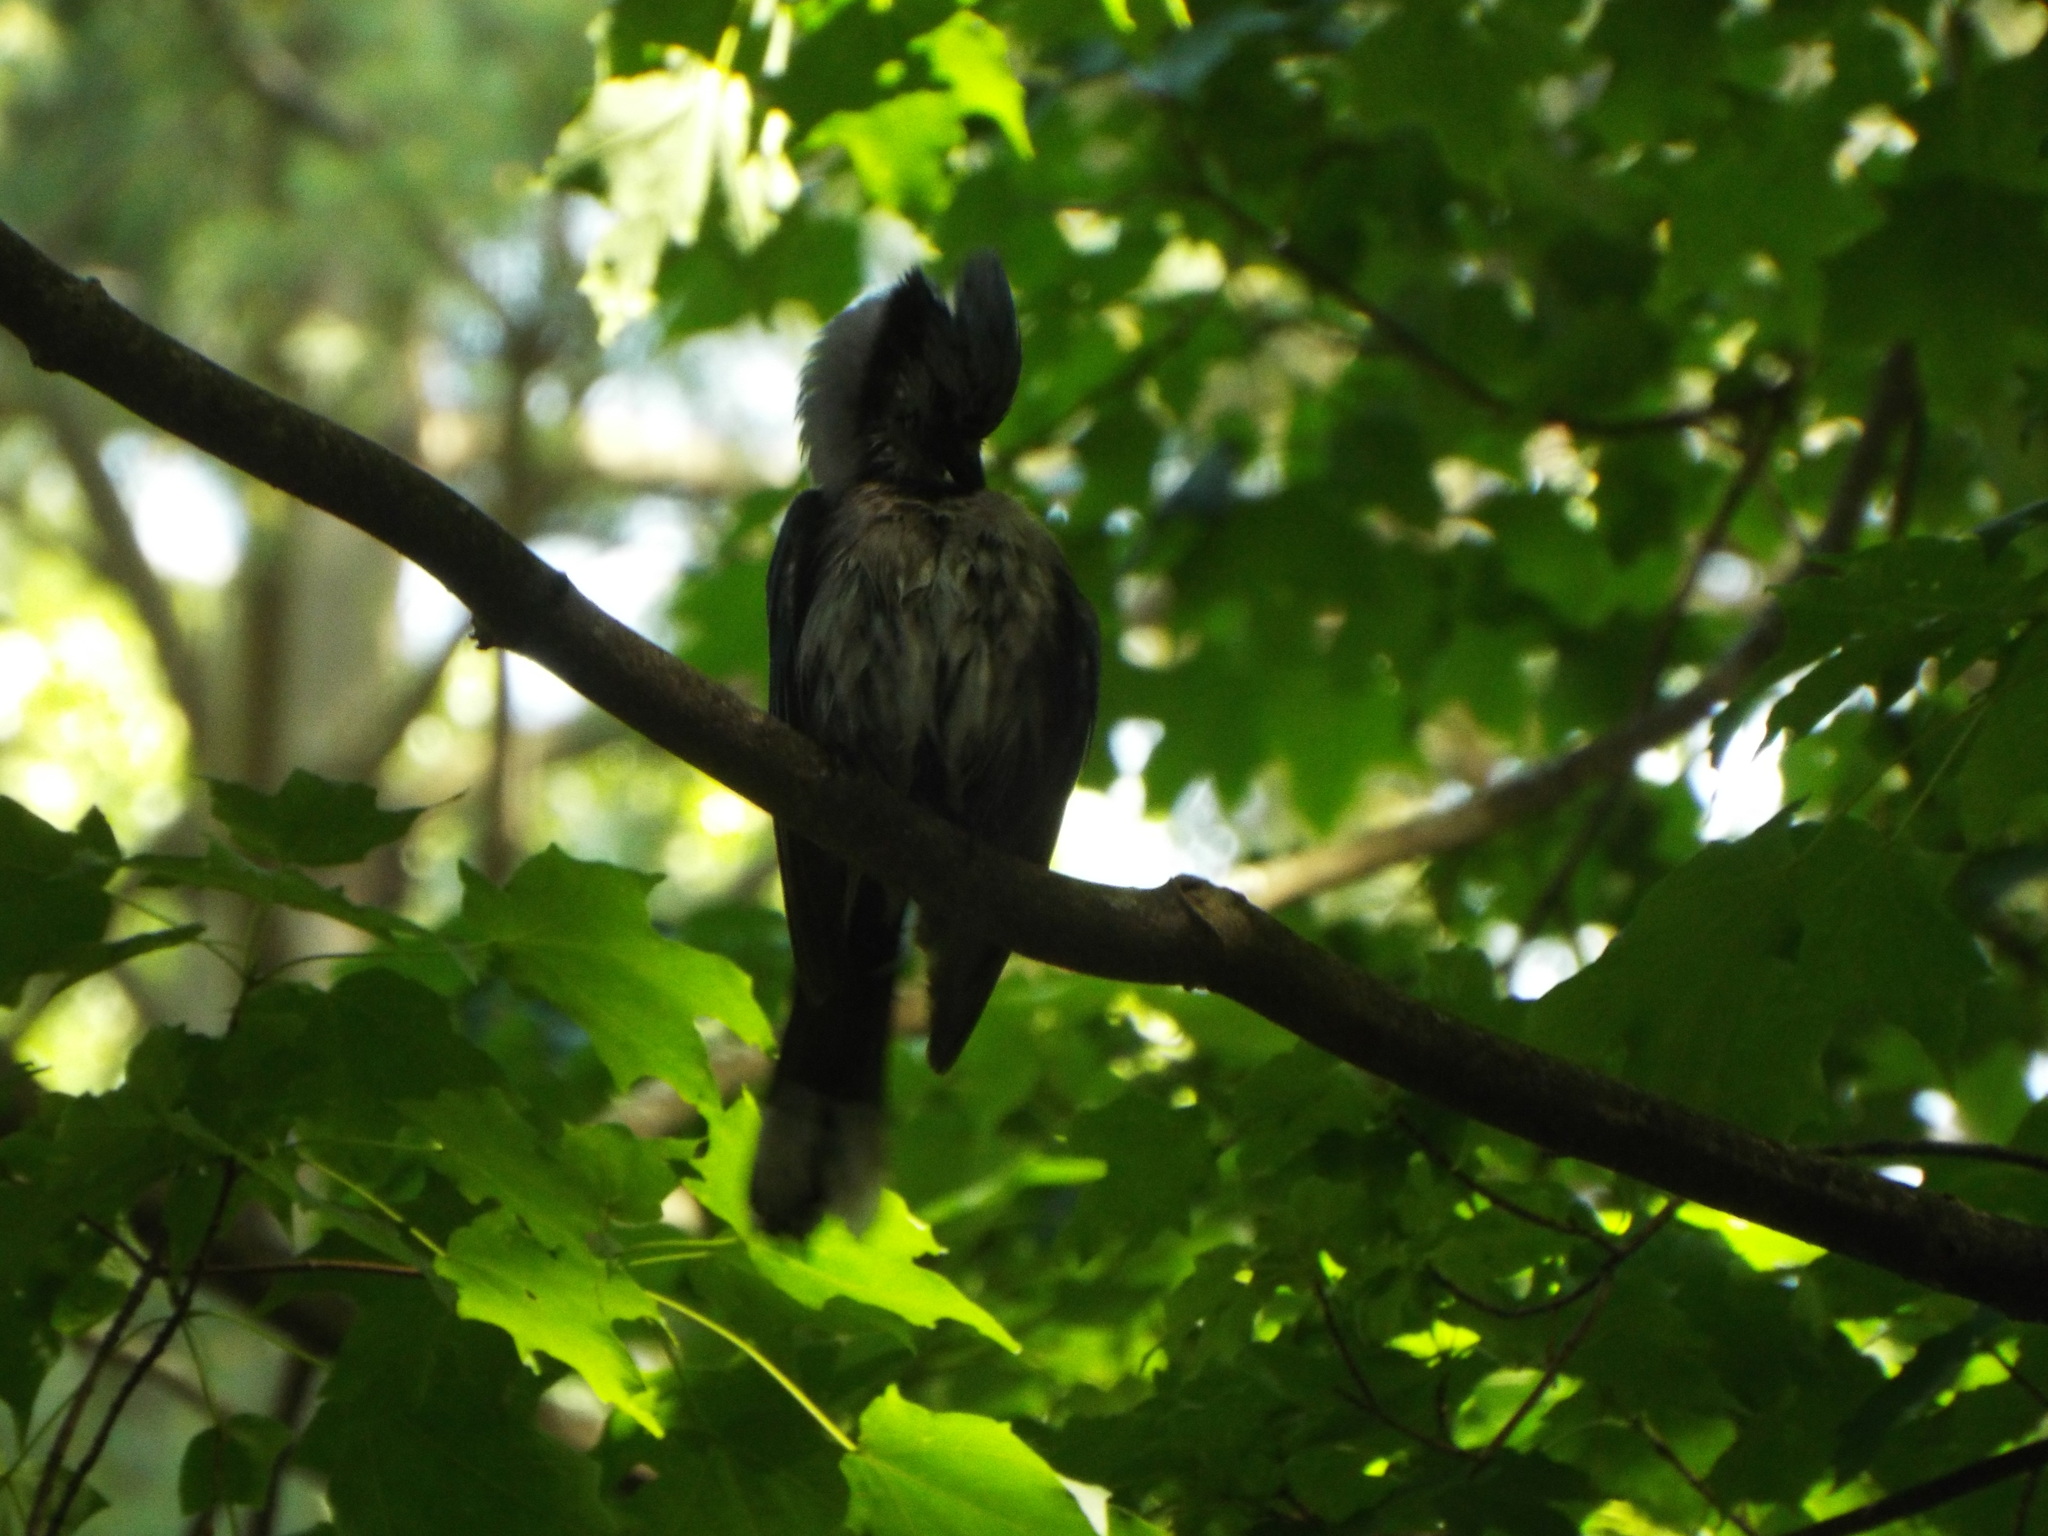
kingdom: Animalia
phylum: Chordata
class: Aves
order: Passeriformes
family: Corvidae
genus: Cyanocitta
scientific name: Cyanocitta cristata
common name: Blue jay
